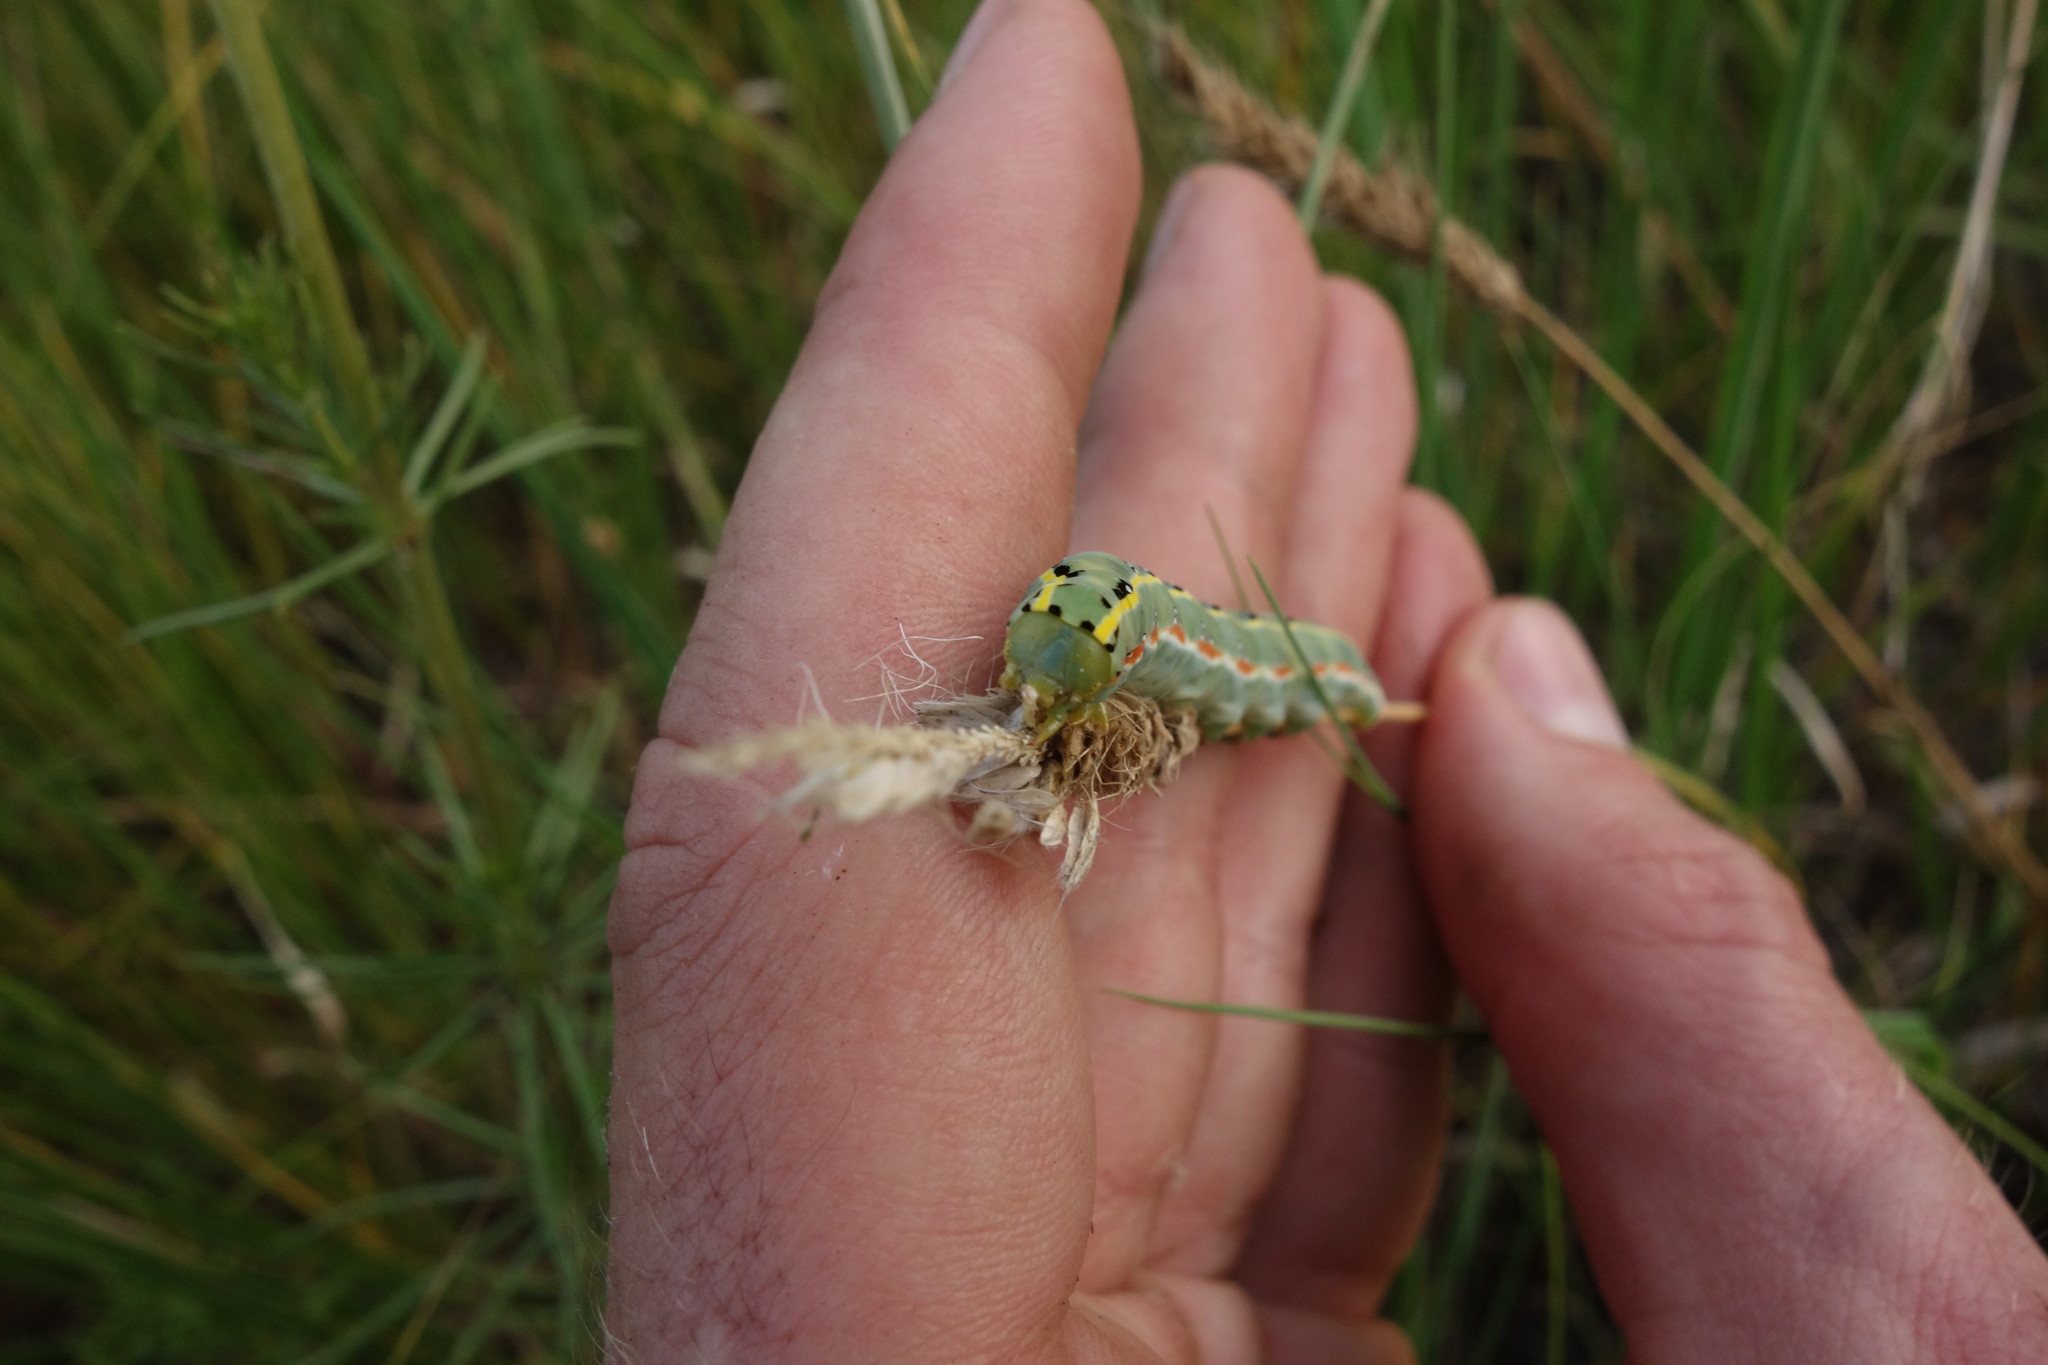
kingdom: Animalia
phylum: Arthropoda
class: Insecta
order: Lepidoptera
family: Noctuidae
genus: Xylena
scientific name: Xylena exsoleta
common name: Sword-grass
